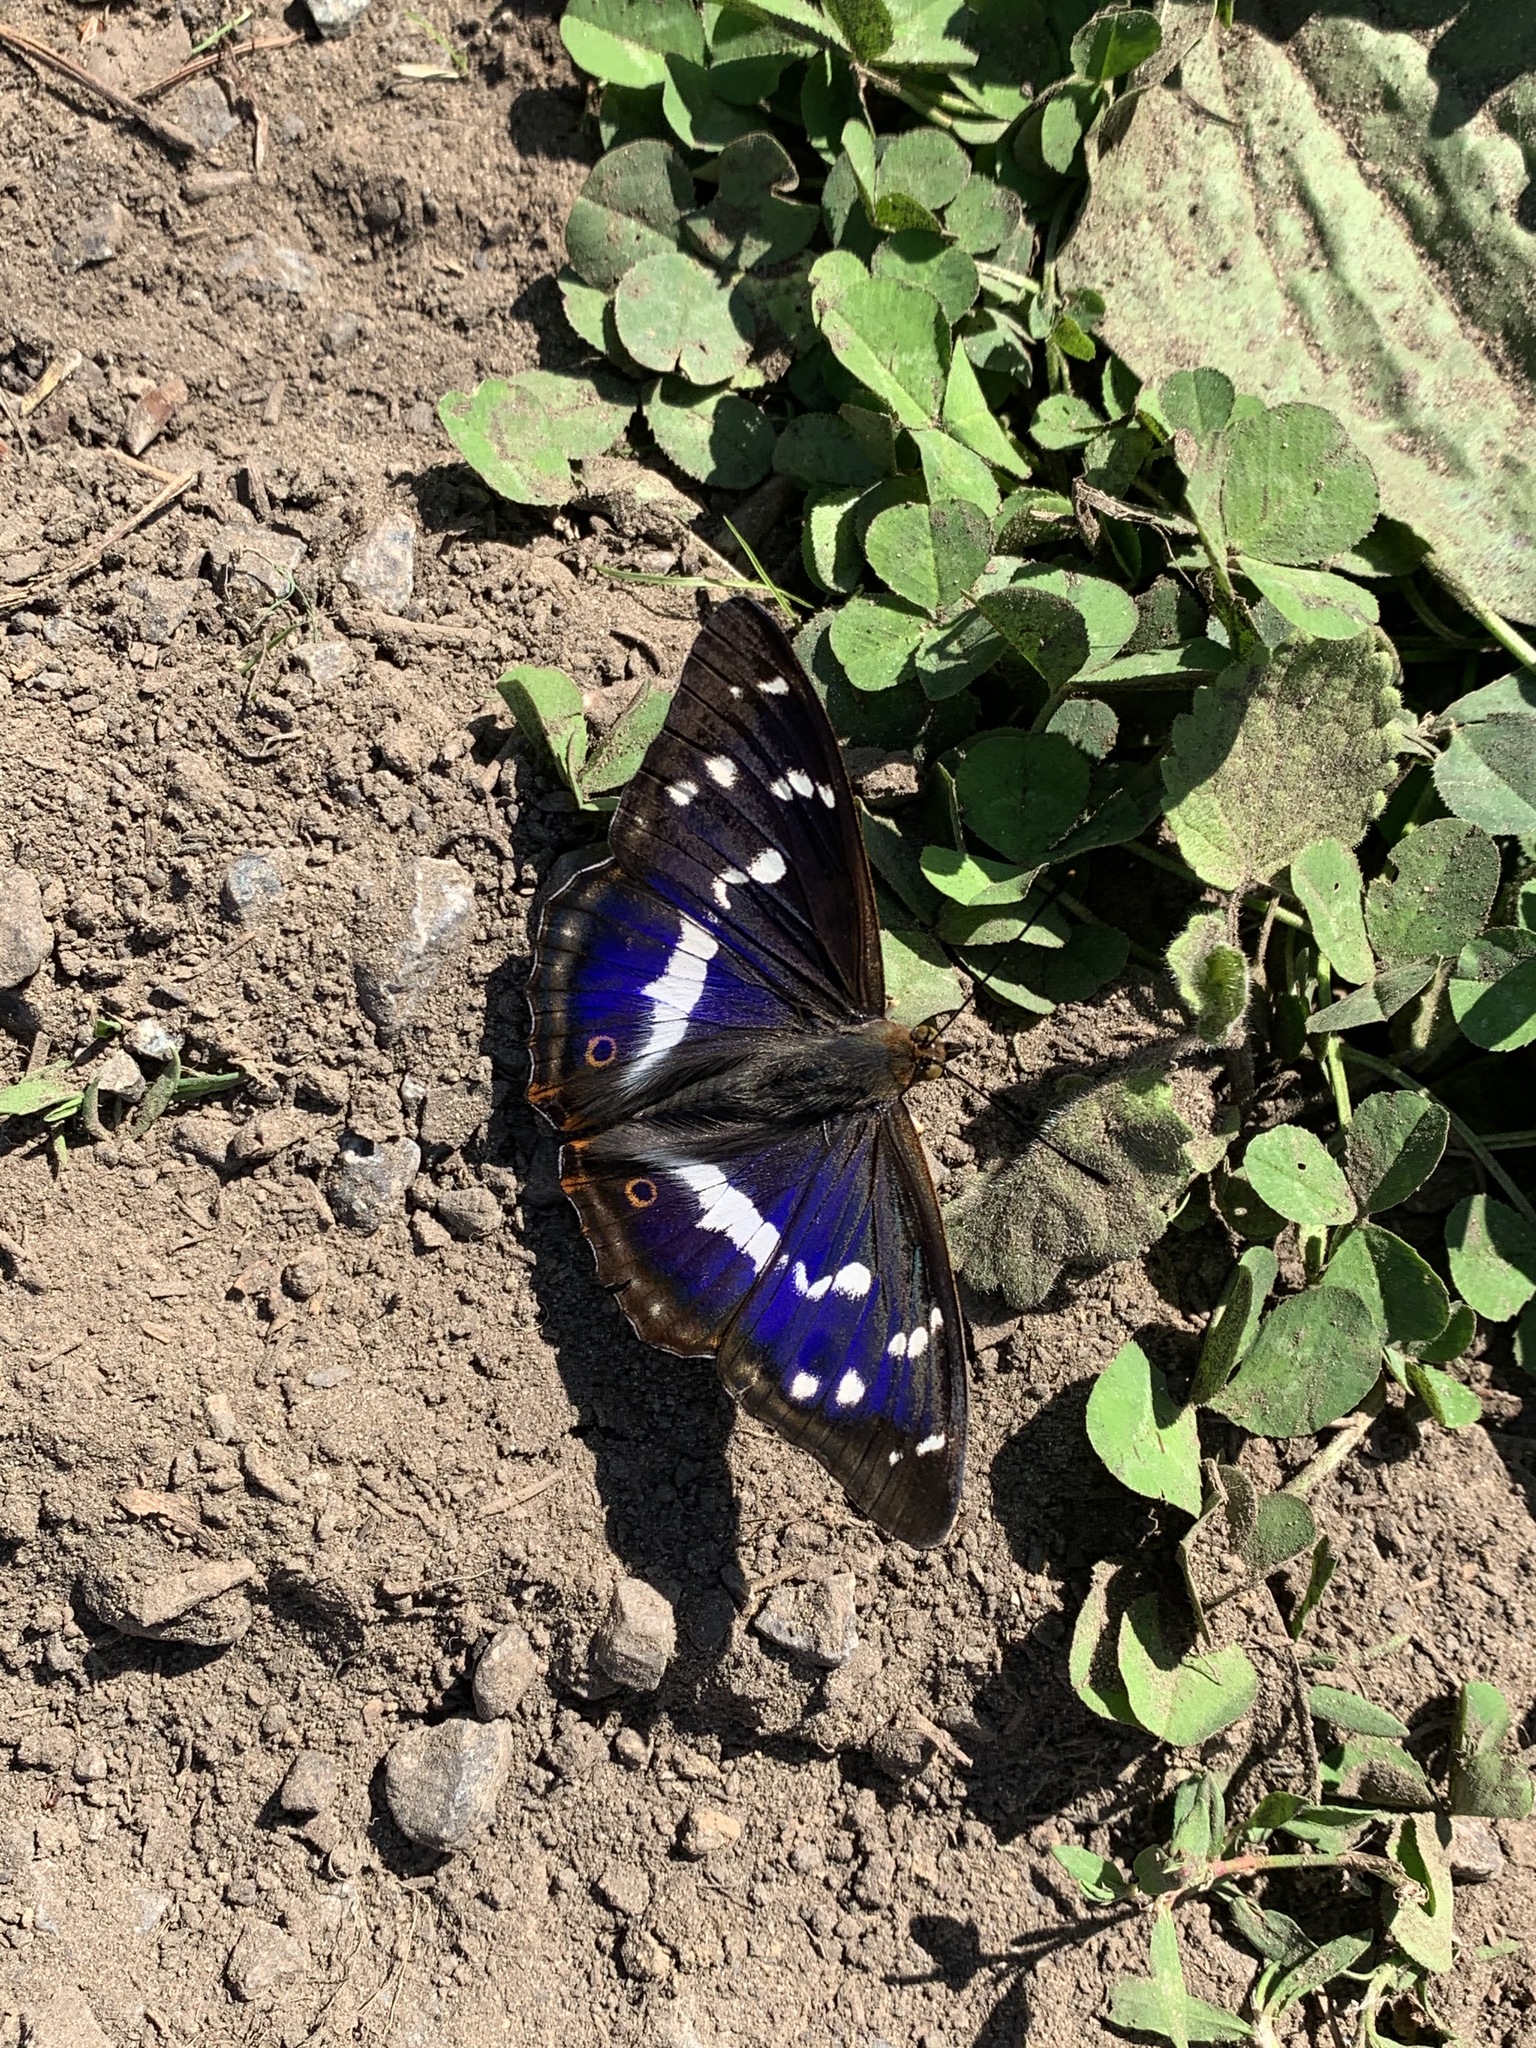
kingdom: Animalia
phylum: Arthropoda
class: Insecta
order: Lepidoptera
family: Nymphalidae
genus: Apatura
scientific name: Apatura iris
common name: Purple emperor
